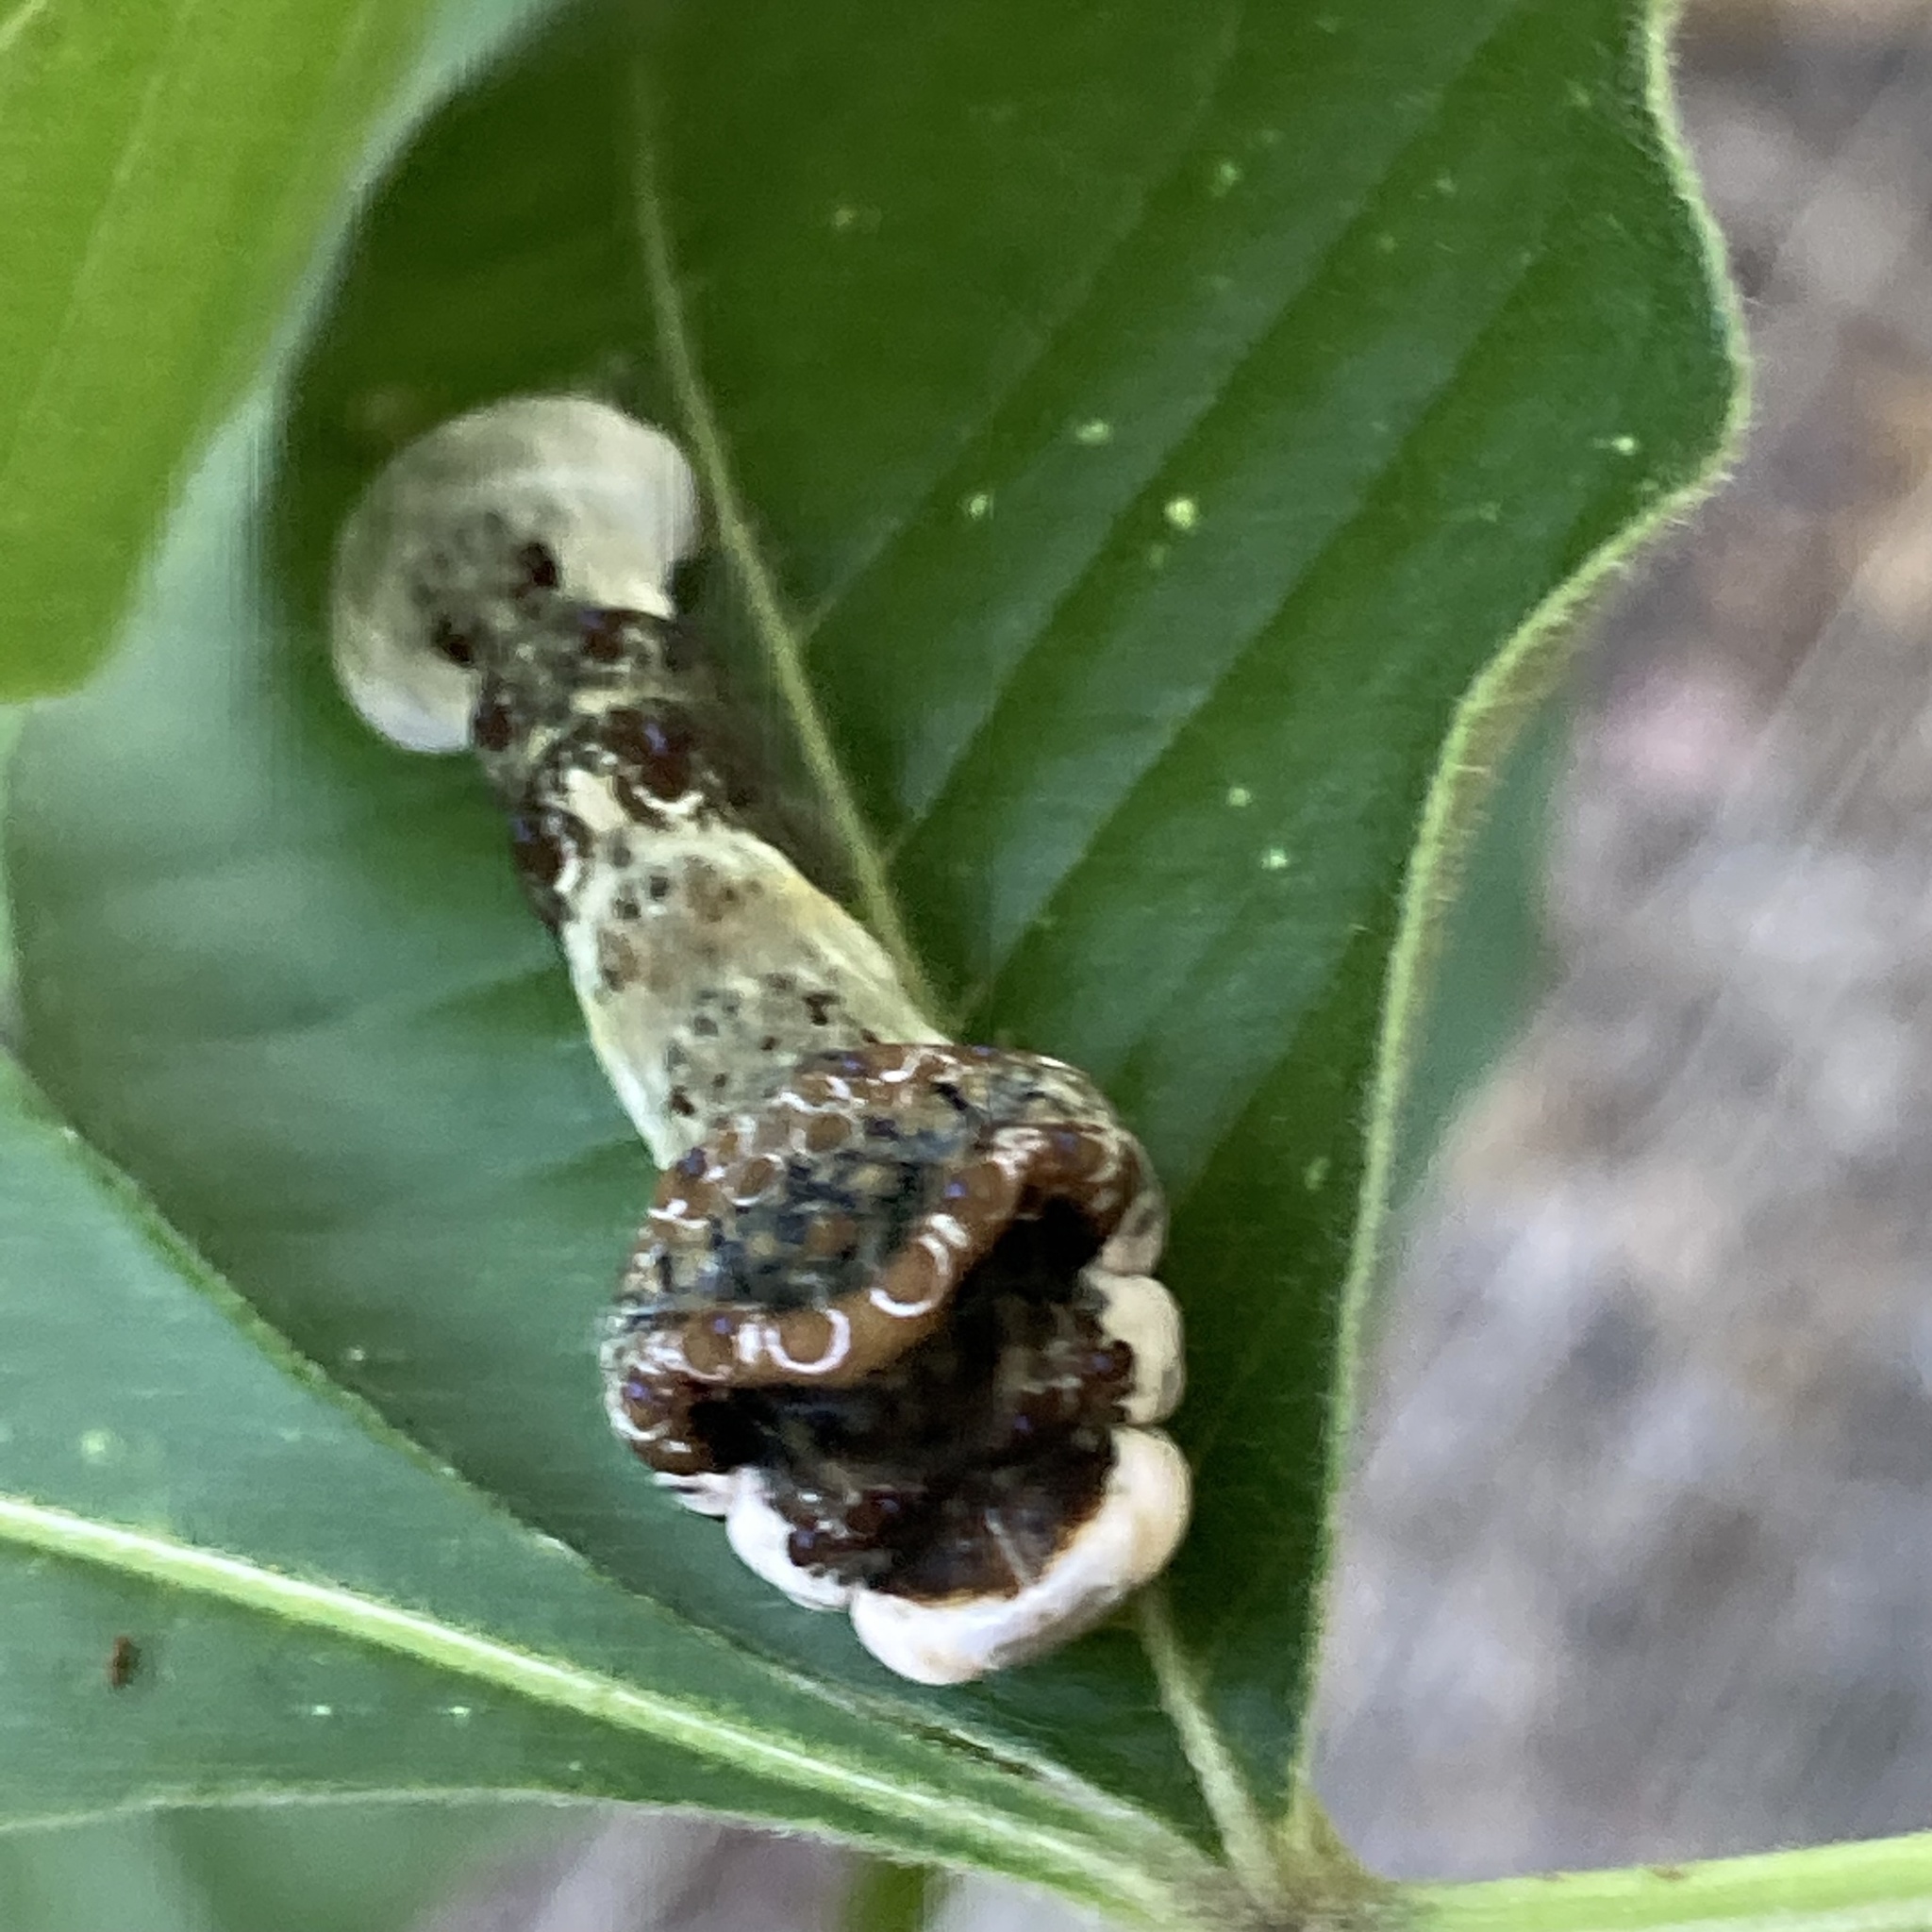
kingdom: Animalia
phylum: Arthropoda
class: Insecta
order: Lepidoptera
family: Papilionidae
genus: Papilio
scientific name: Papilio cresphontes
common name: Giant swallowtail
